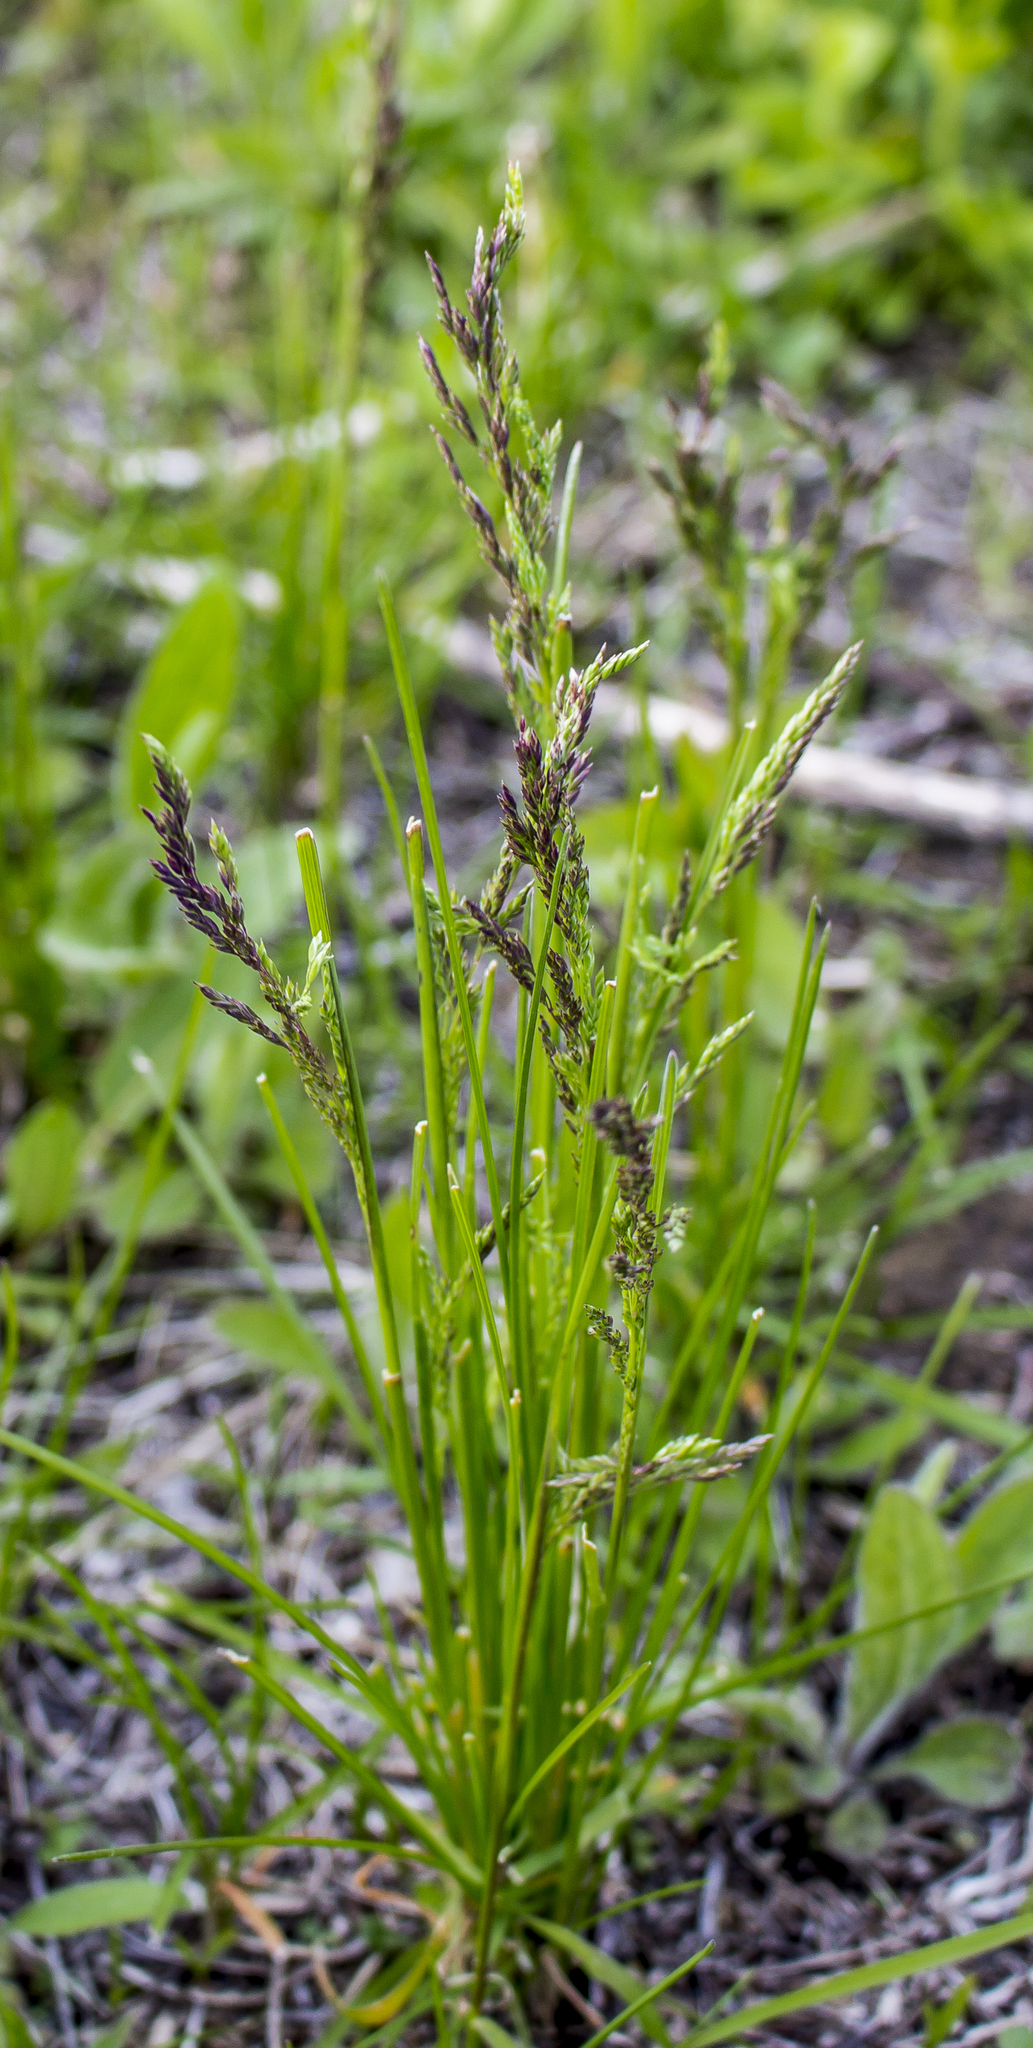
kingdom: Plantae
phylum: Tracheophyta
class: Liliopsida
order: Poales
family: Poaceae
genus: Agrostis
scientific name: Agrostis stolonifera
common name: Creeping bentgrass
